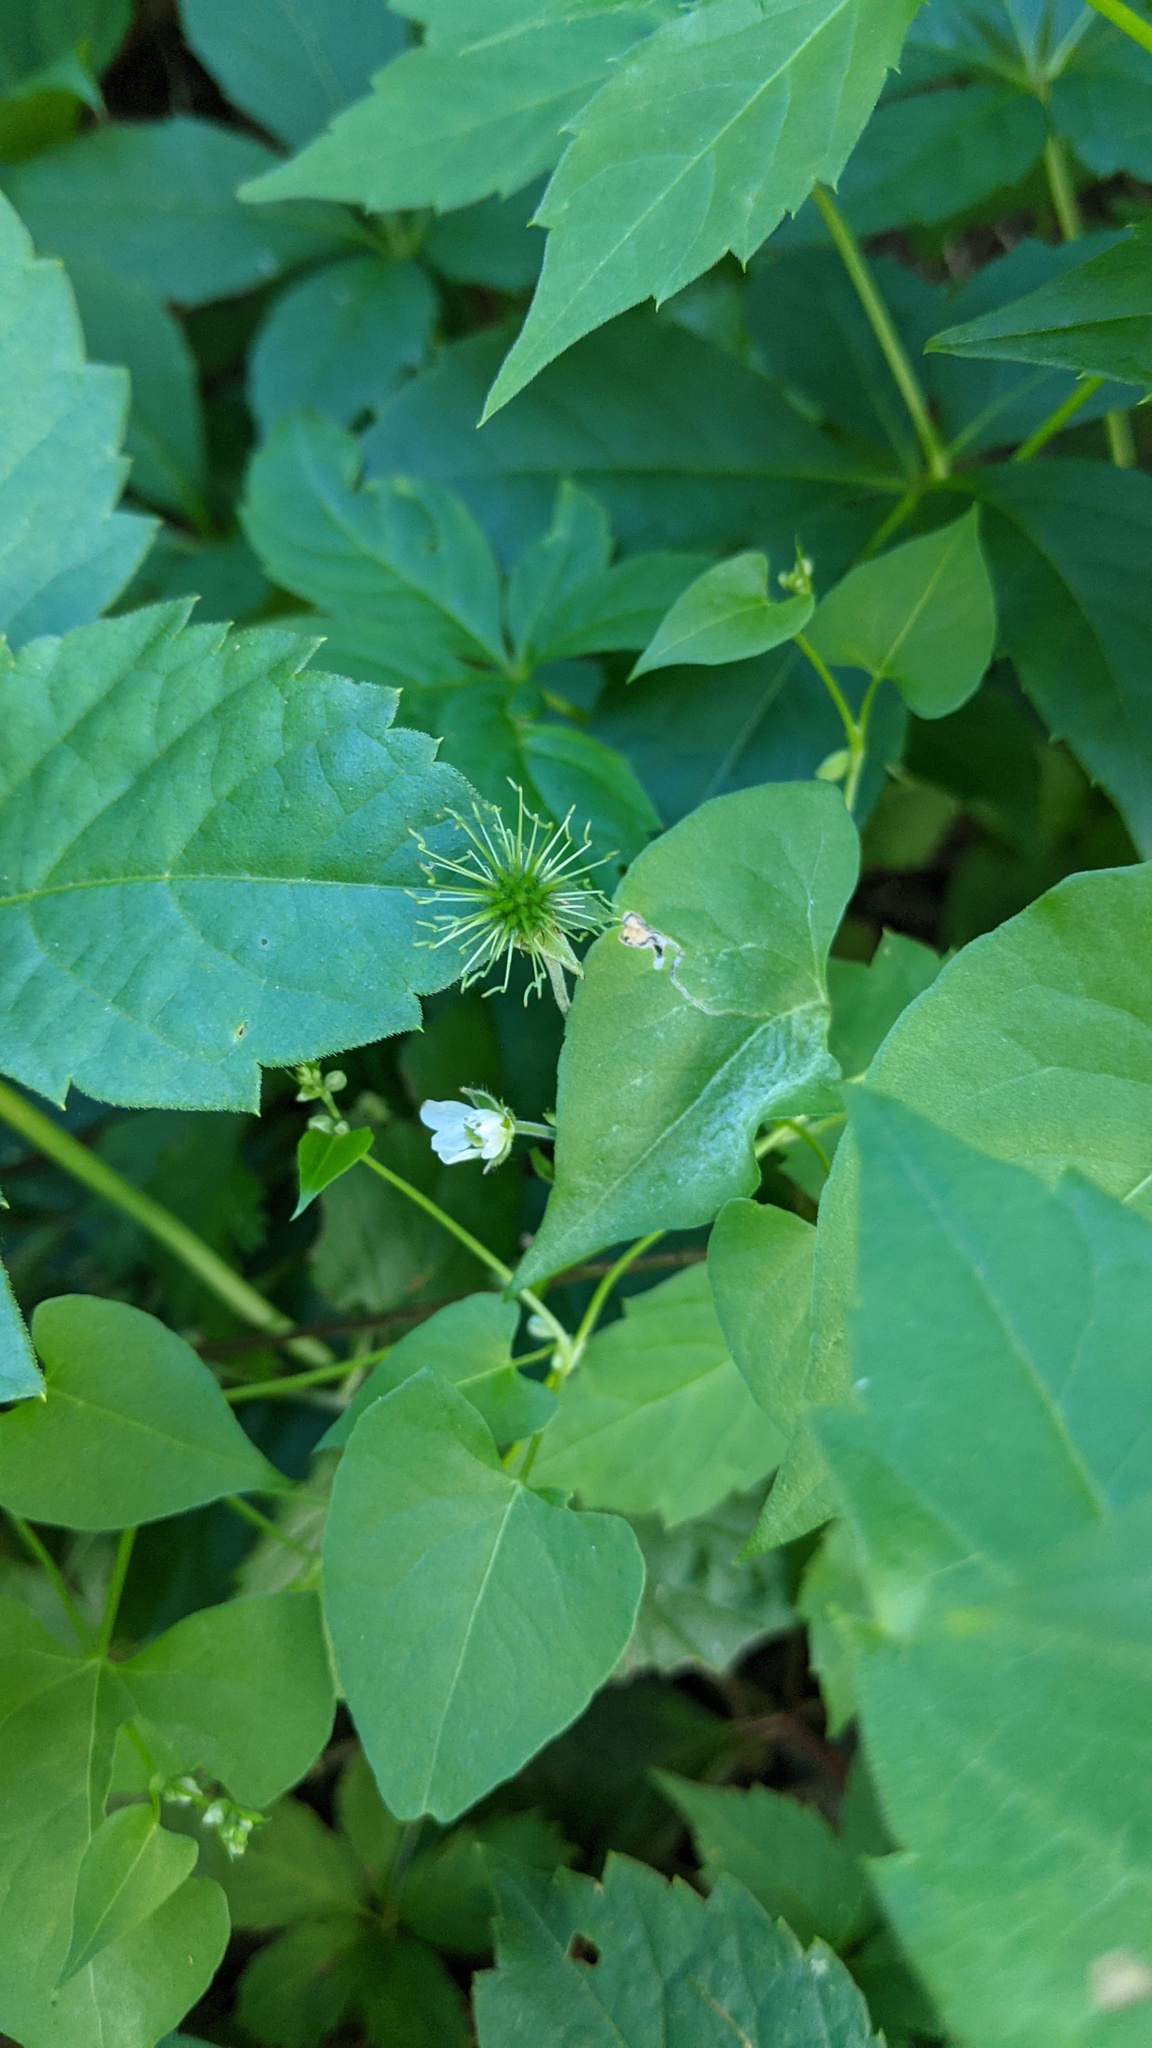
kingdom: Plantae
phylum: Tracheophyta
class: Magnoliopsida
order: Rosales
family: Rosaceae
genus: Geum
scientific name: Geum canadense
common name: White avens
